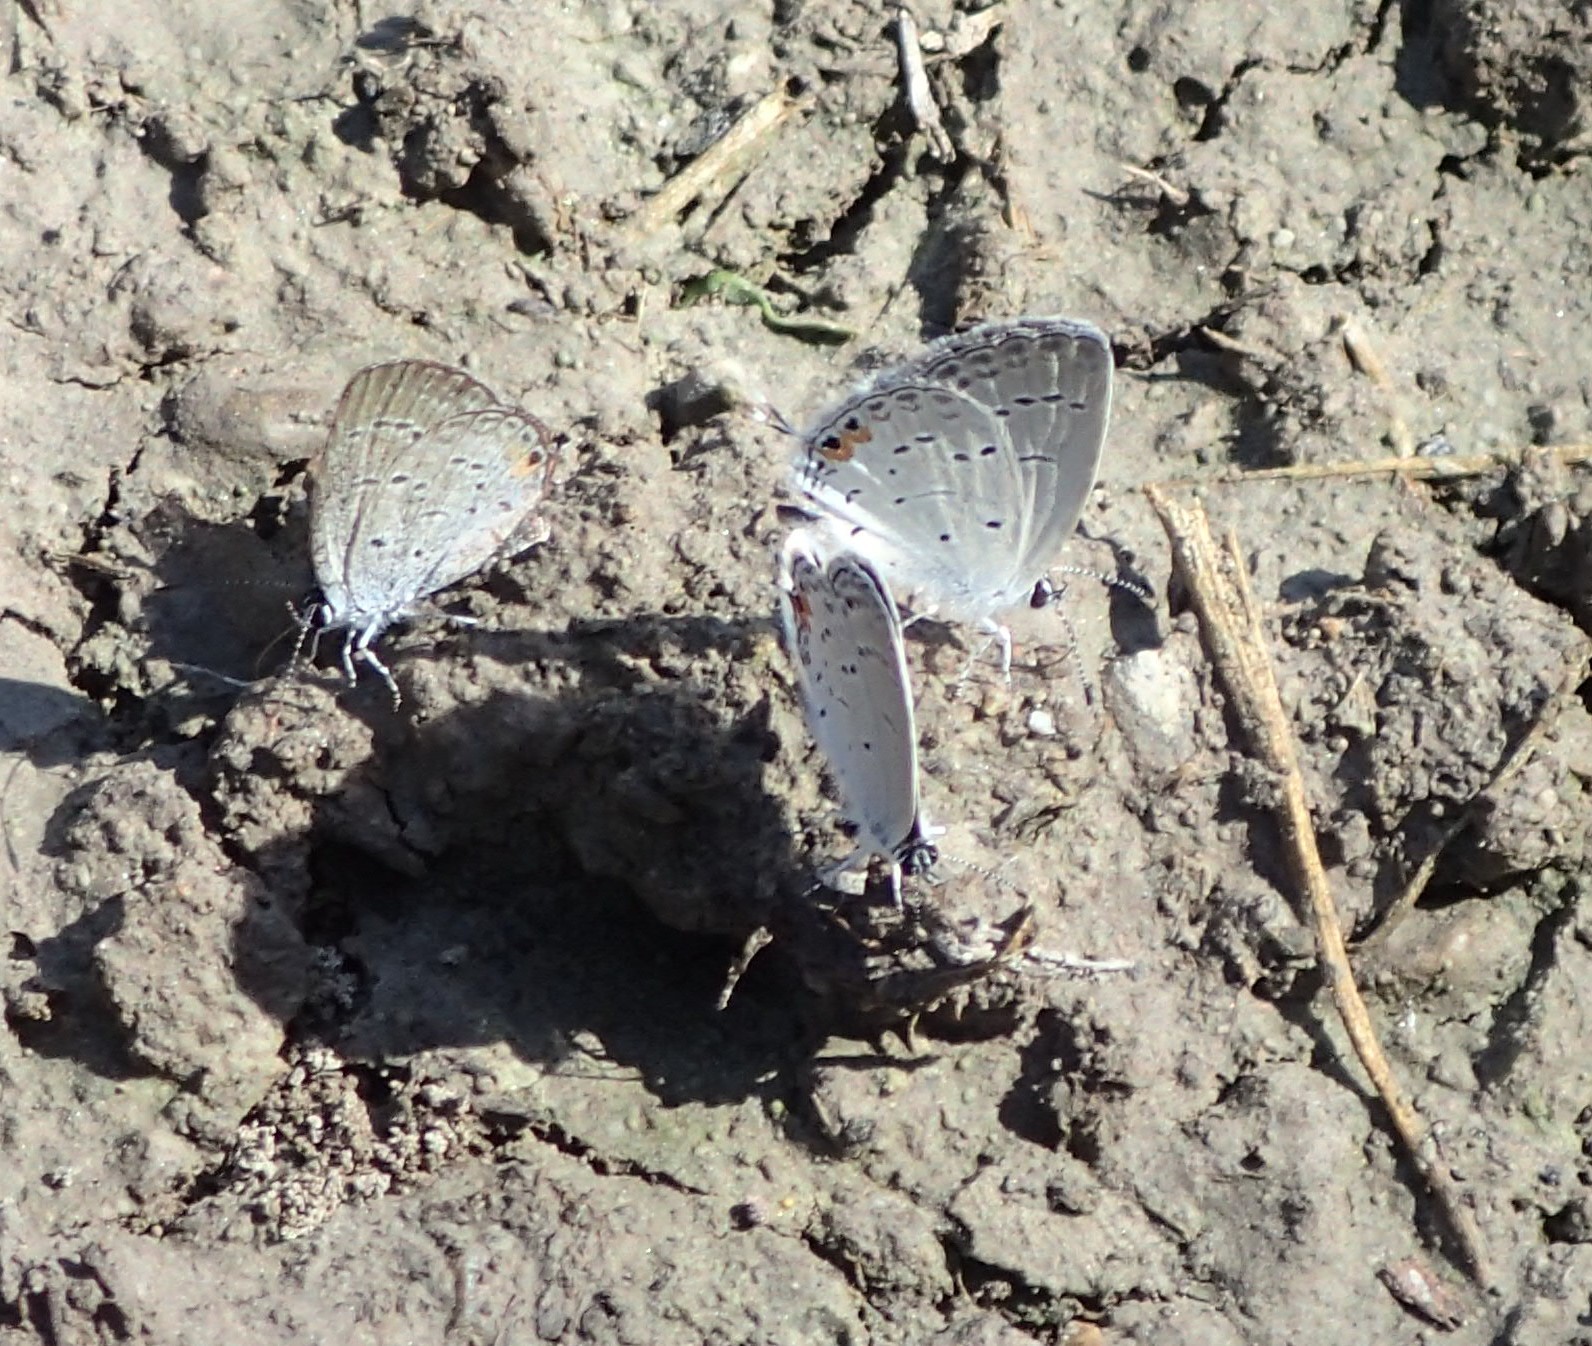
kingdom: Animalia
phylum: Arthropoda
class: Insecta
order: Lepidoptera
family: Lycaenidae
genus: Elkalyce
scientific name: Elkalyce comyntas
